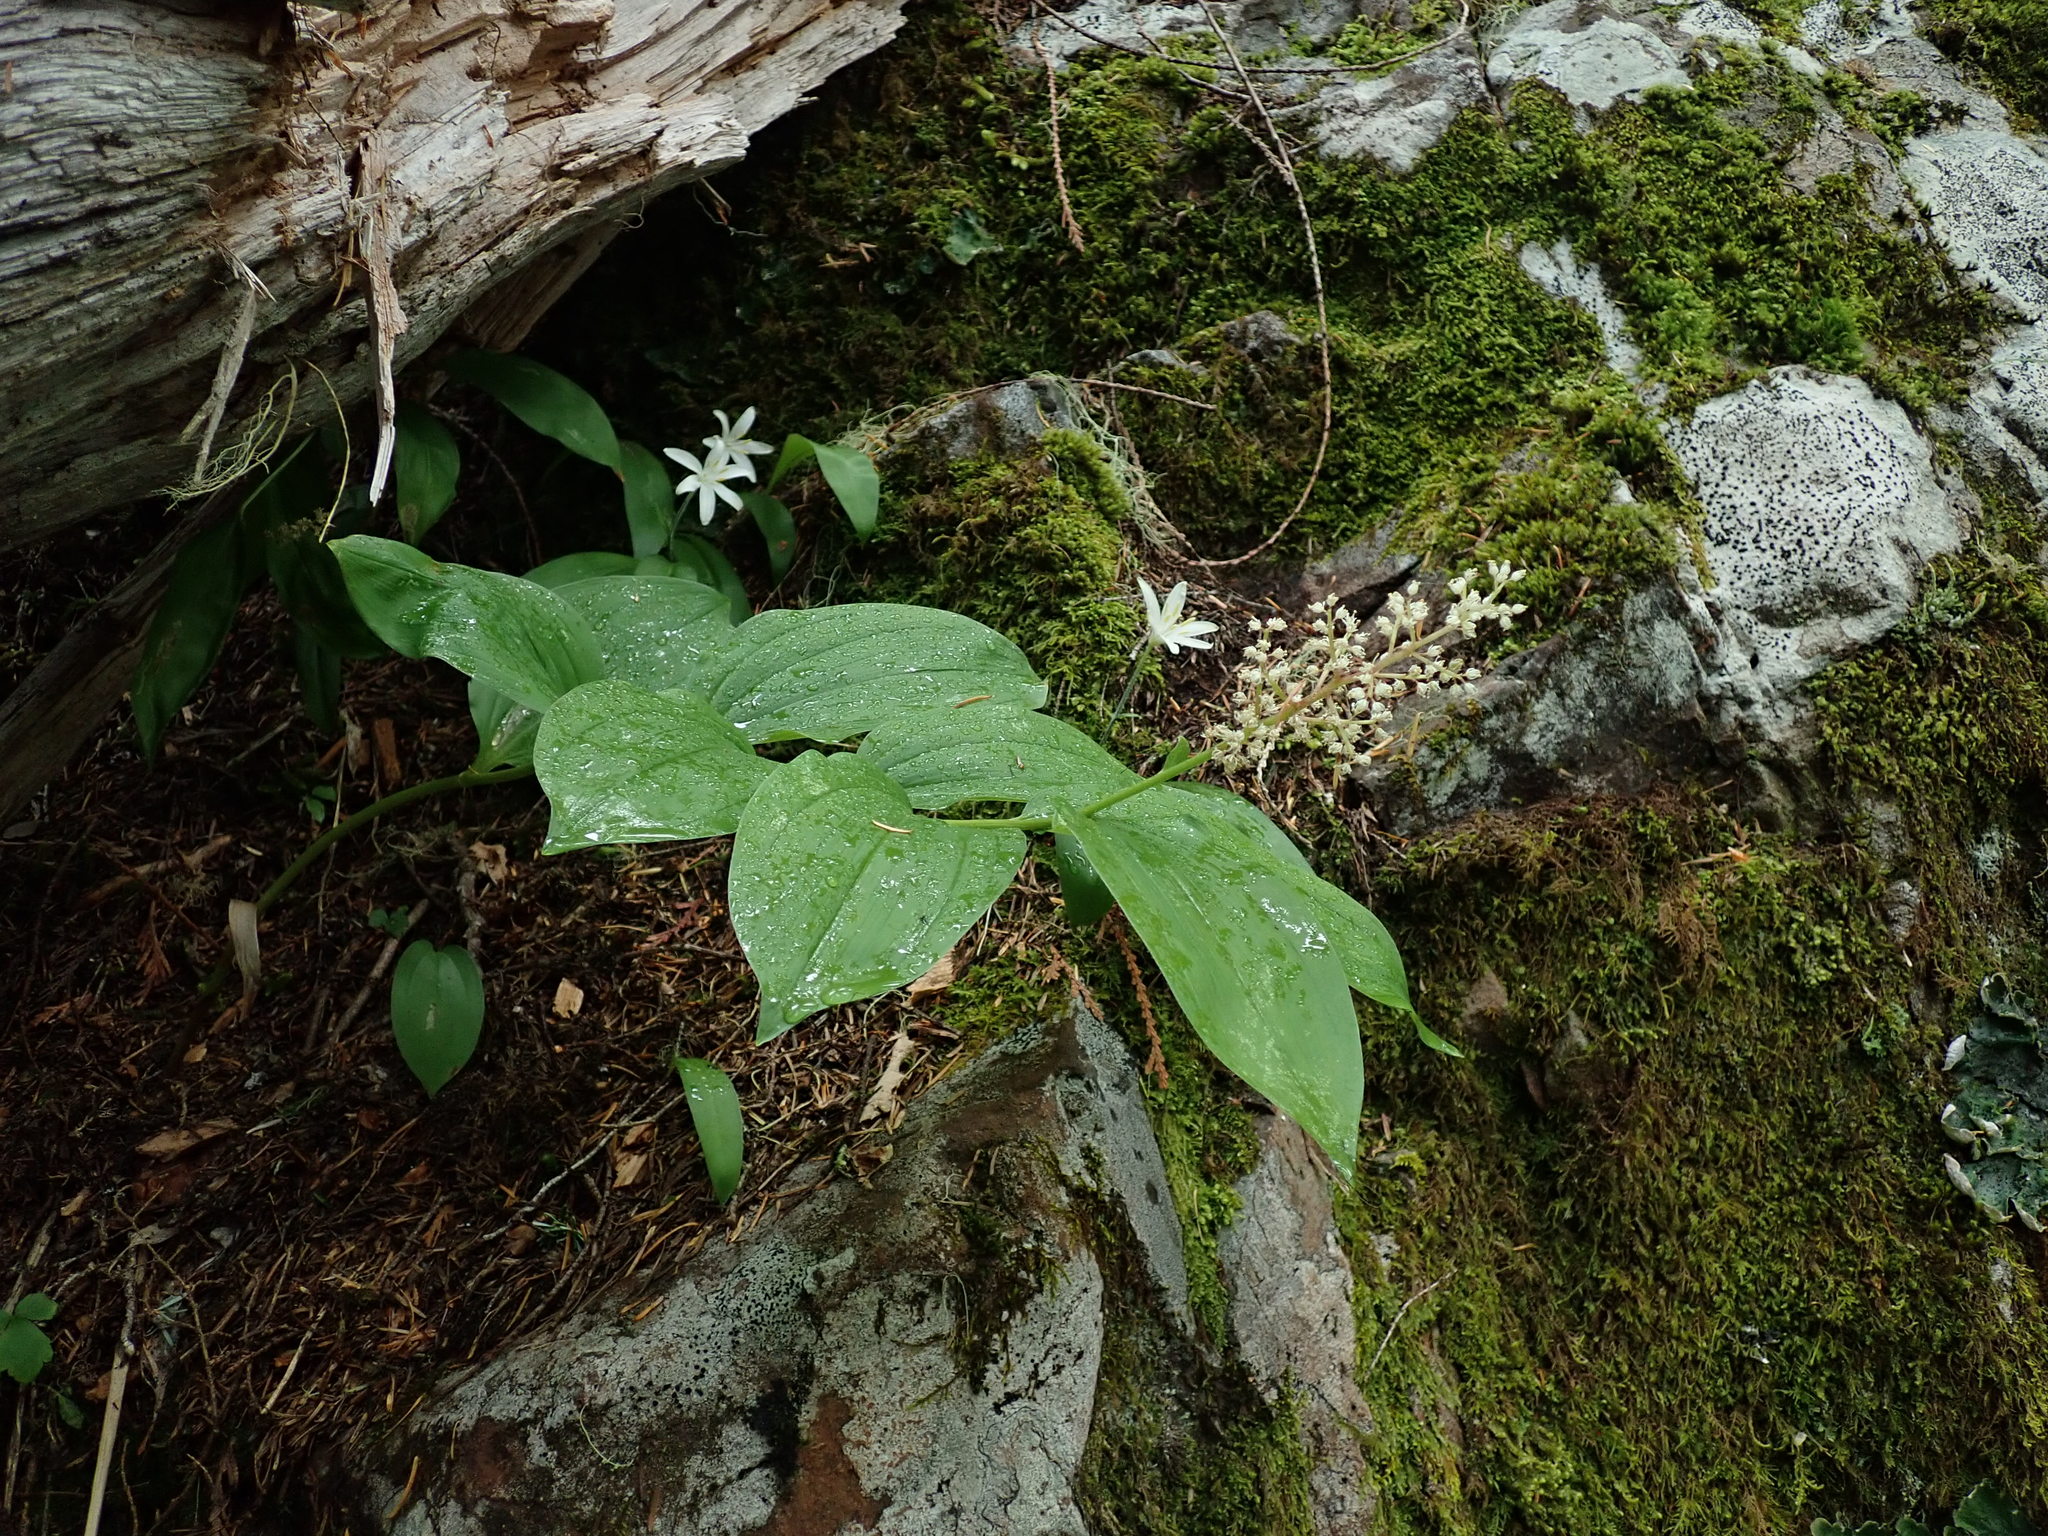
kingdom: Plantae
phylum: Tracheophyta
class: Liliopsida
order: Asparagales
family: Asparagaceae
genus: Maianthemum
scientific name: Maianthemum racemosum
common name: False spikenard
